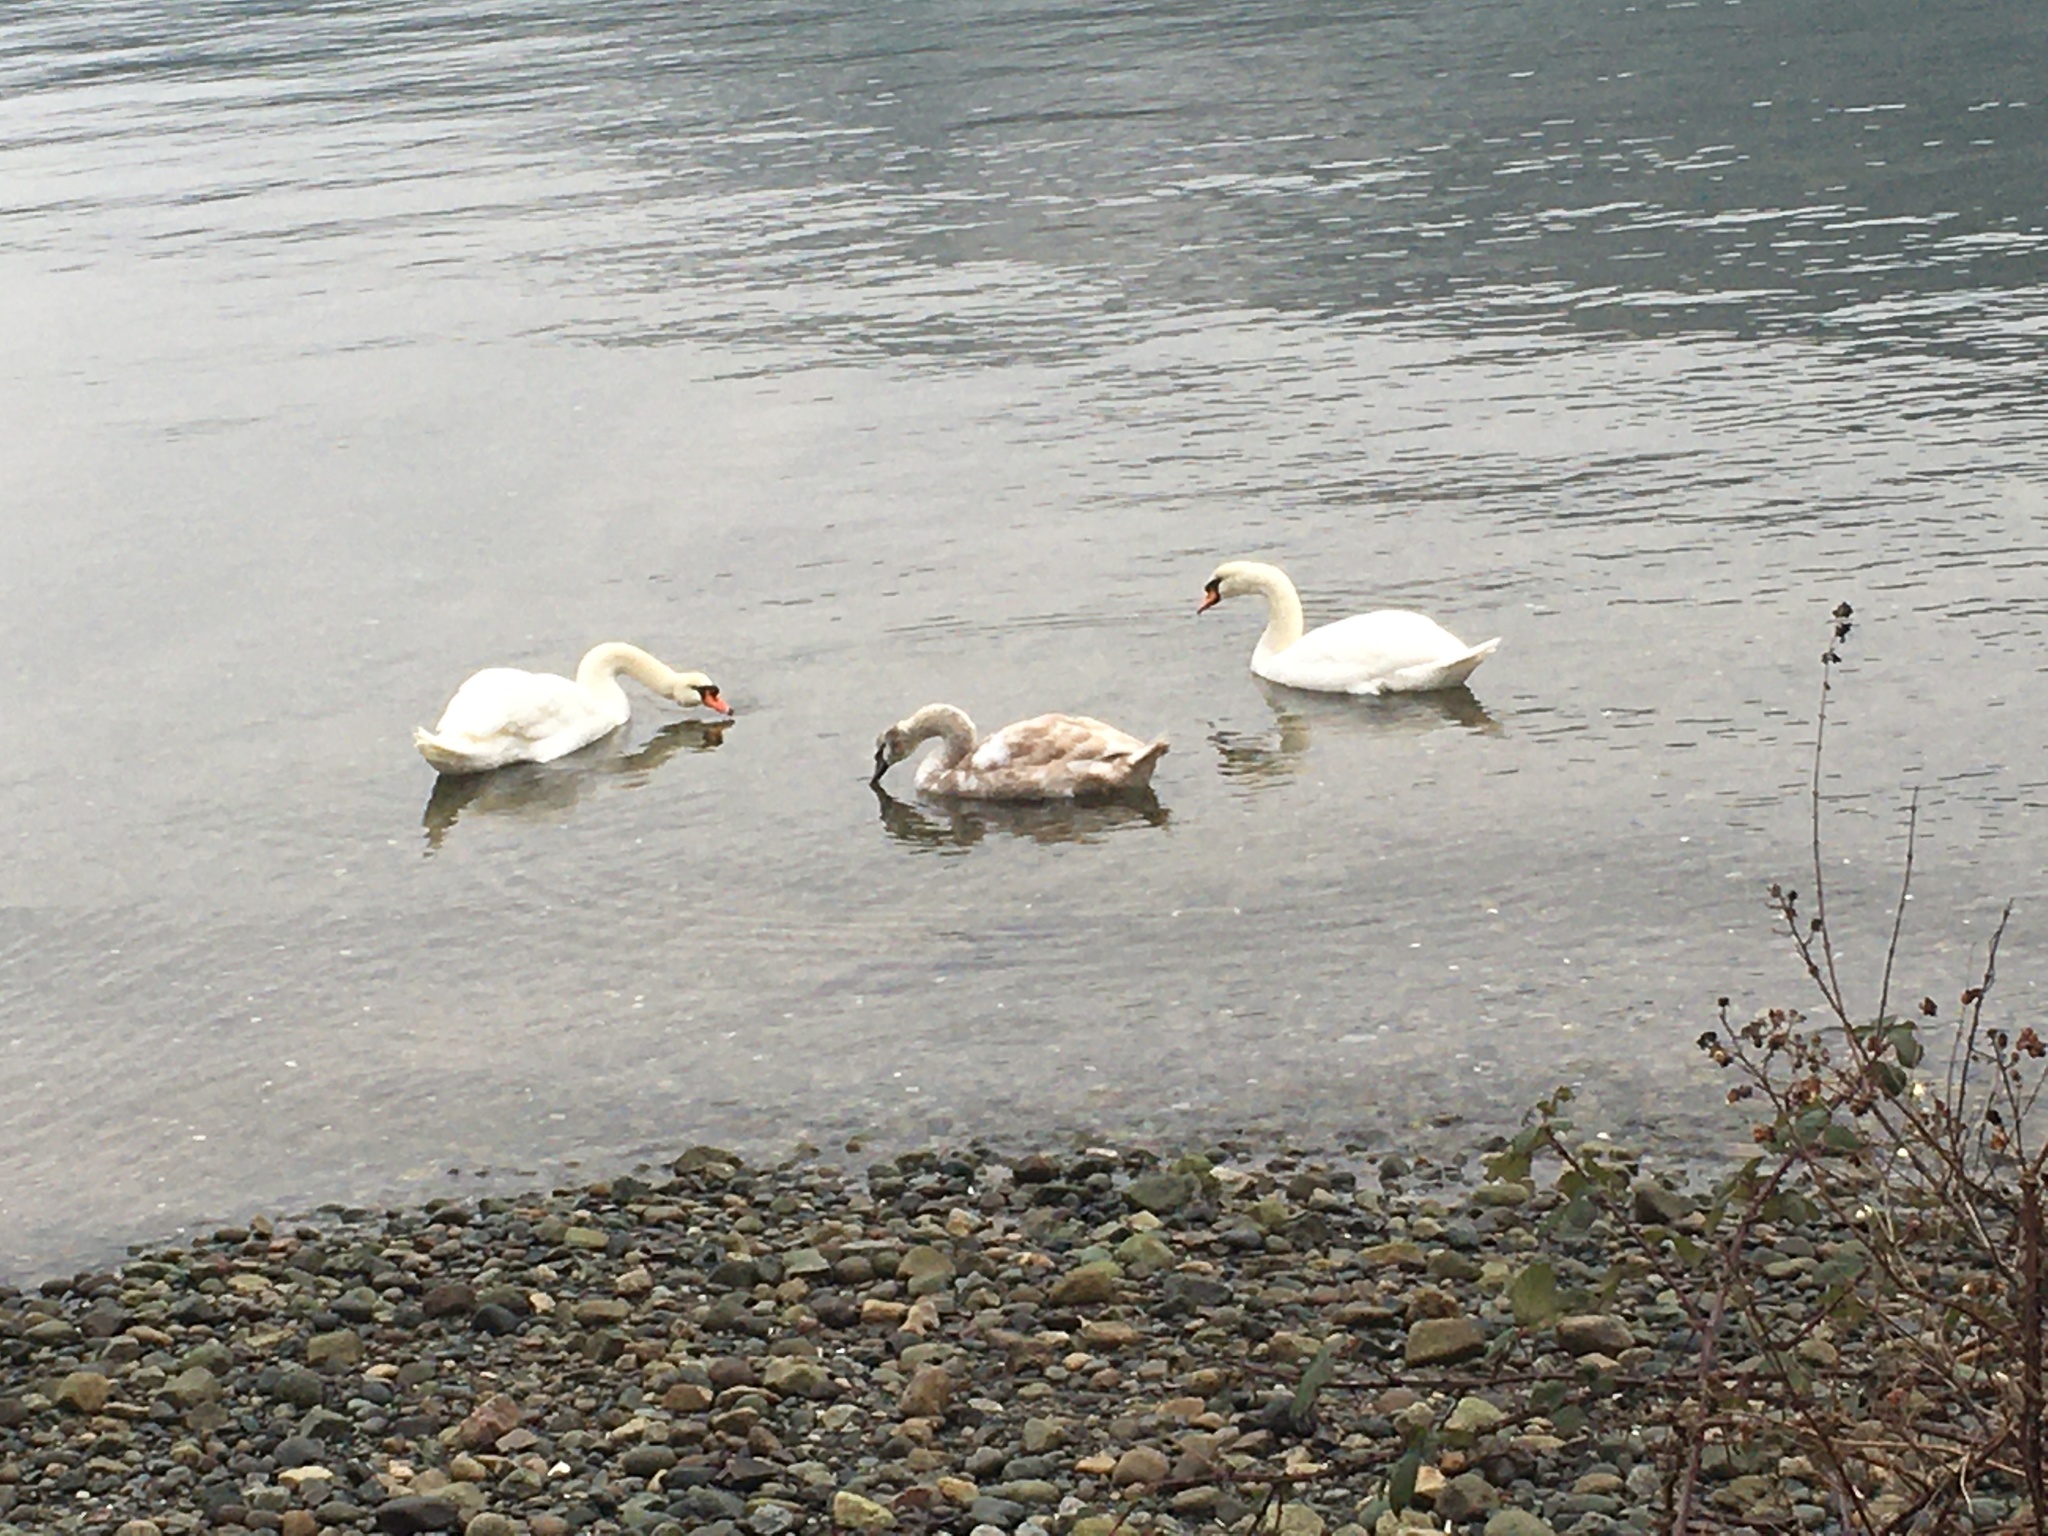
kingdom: Animalia
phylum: Chordata
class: Aves
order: Anseriformes
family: Anatidae
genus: Cygnus
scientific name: Cygnus olor
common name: Mute swan
